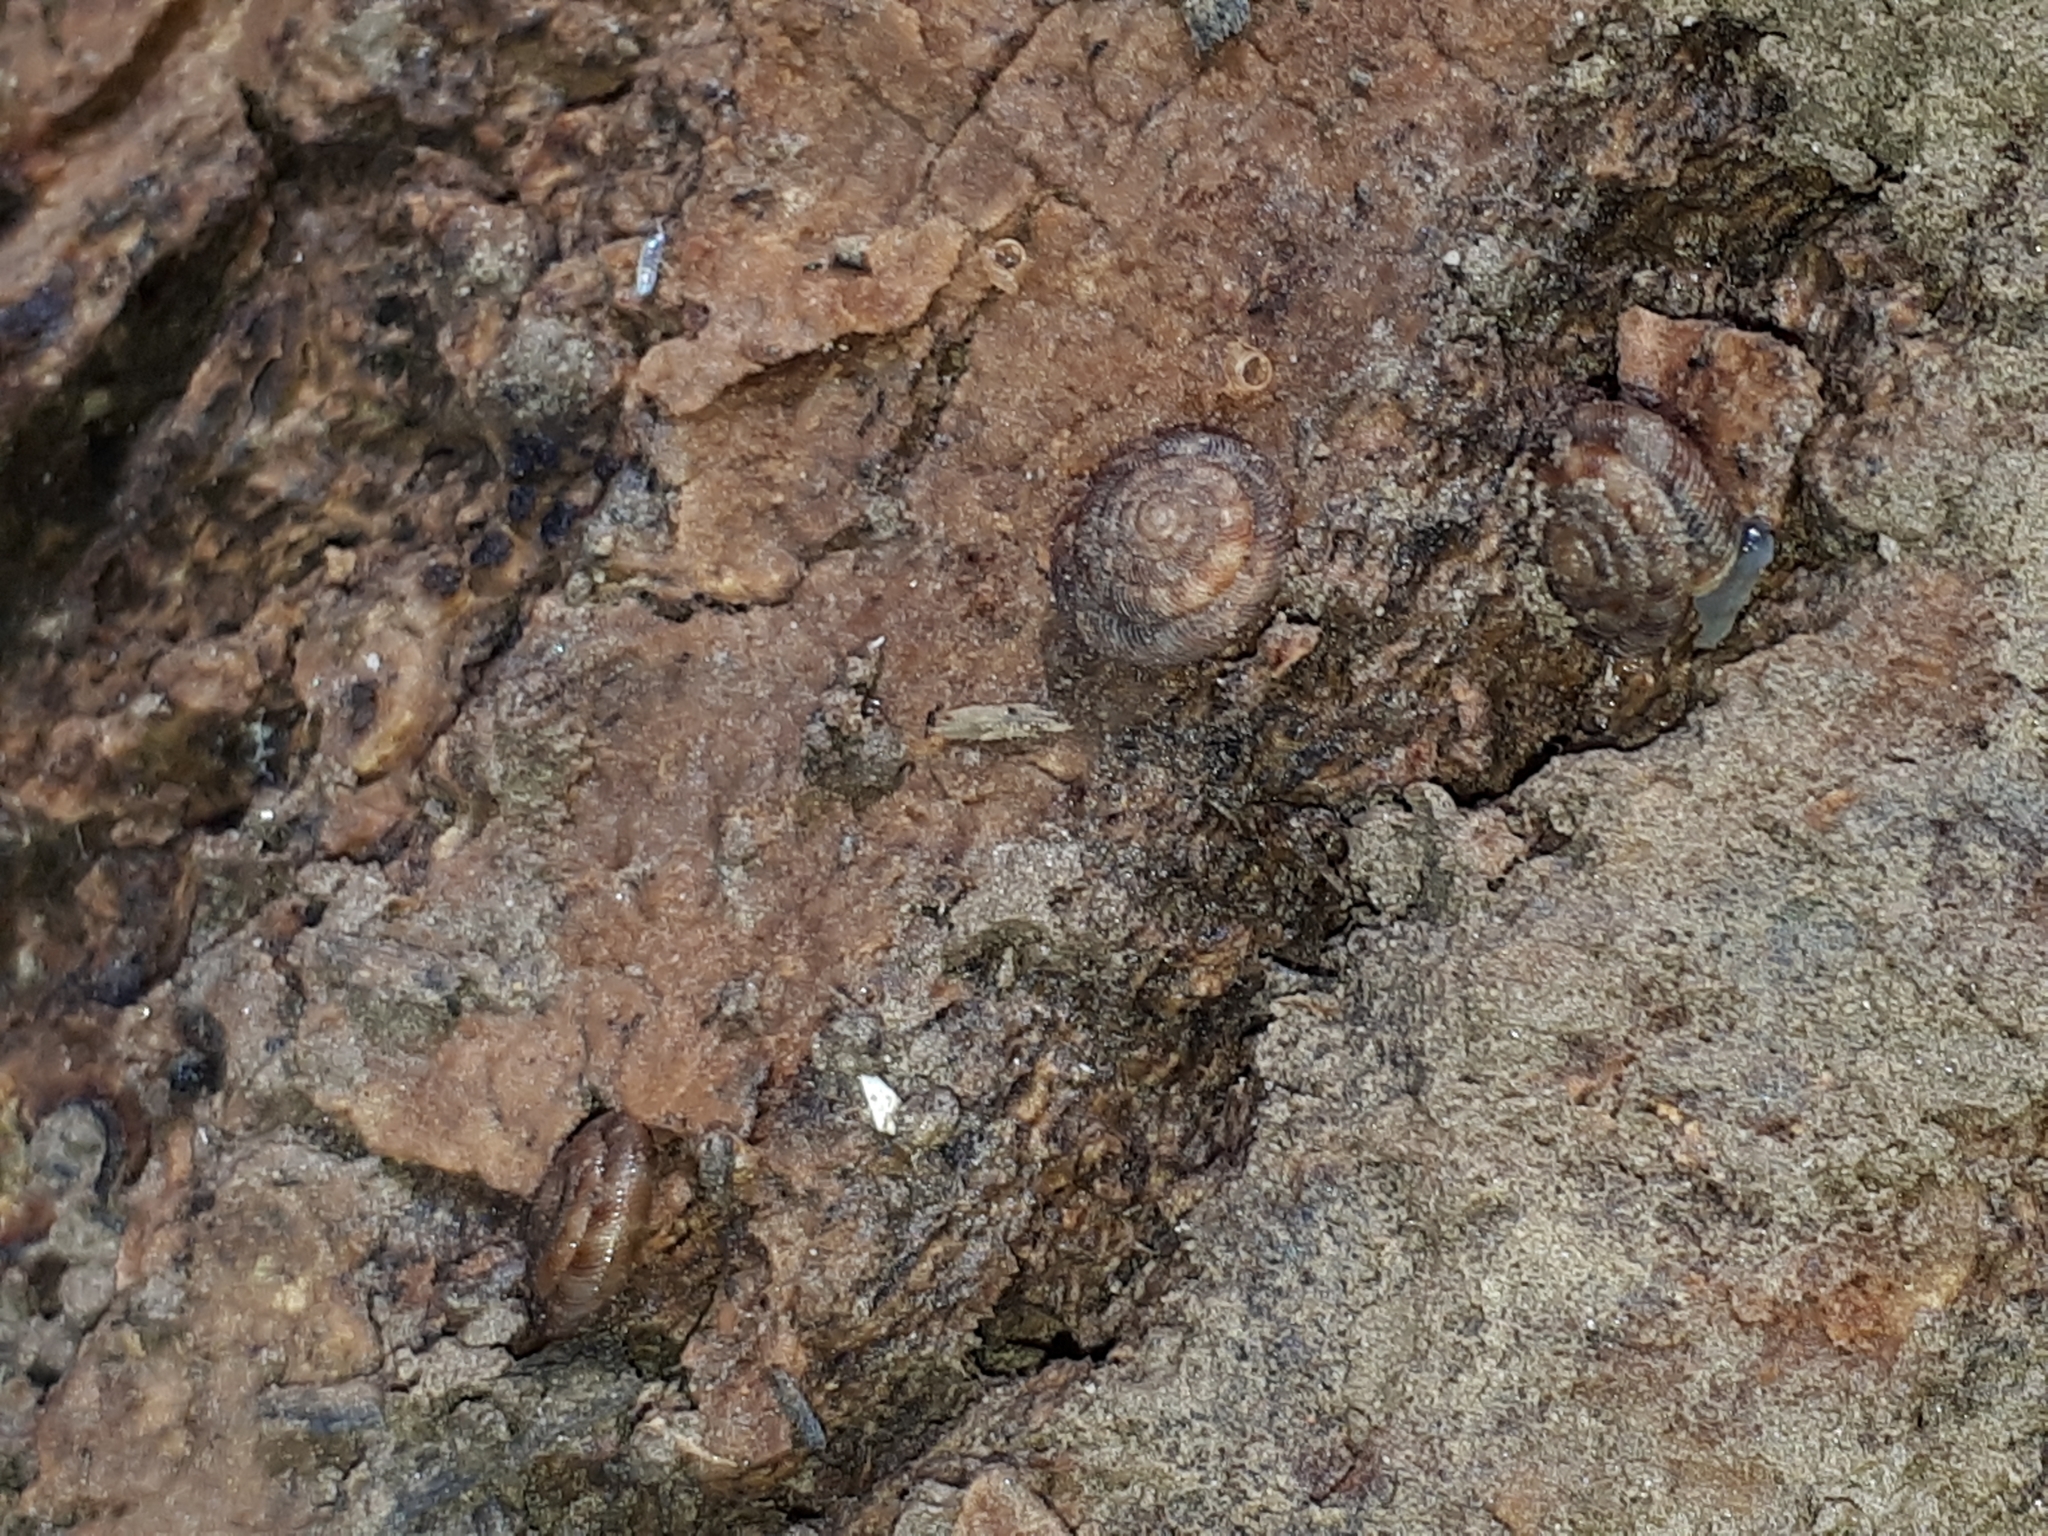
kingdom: Animalia
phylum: Mollusca
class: Gastropoda
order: Stylommatophora
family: Discidae
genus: Discus
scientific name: Discus rotundatus
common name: Rounded snail
